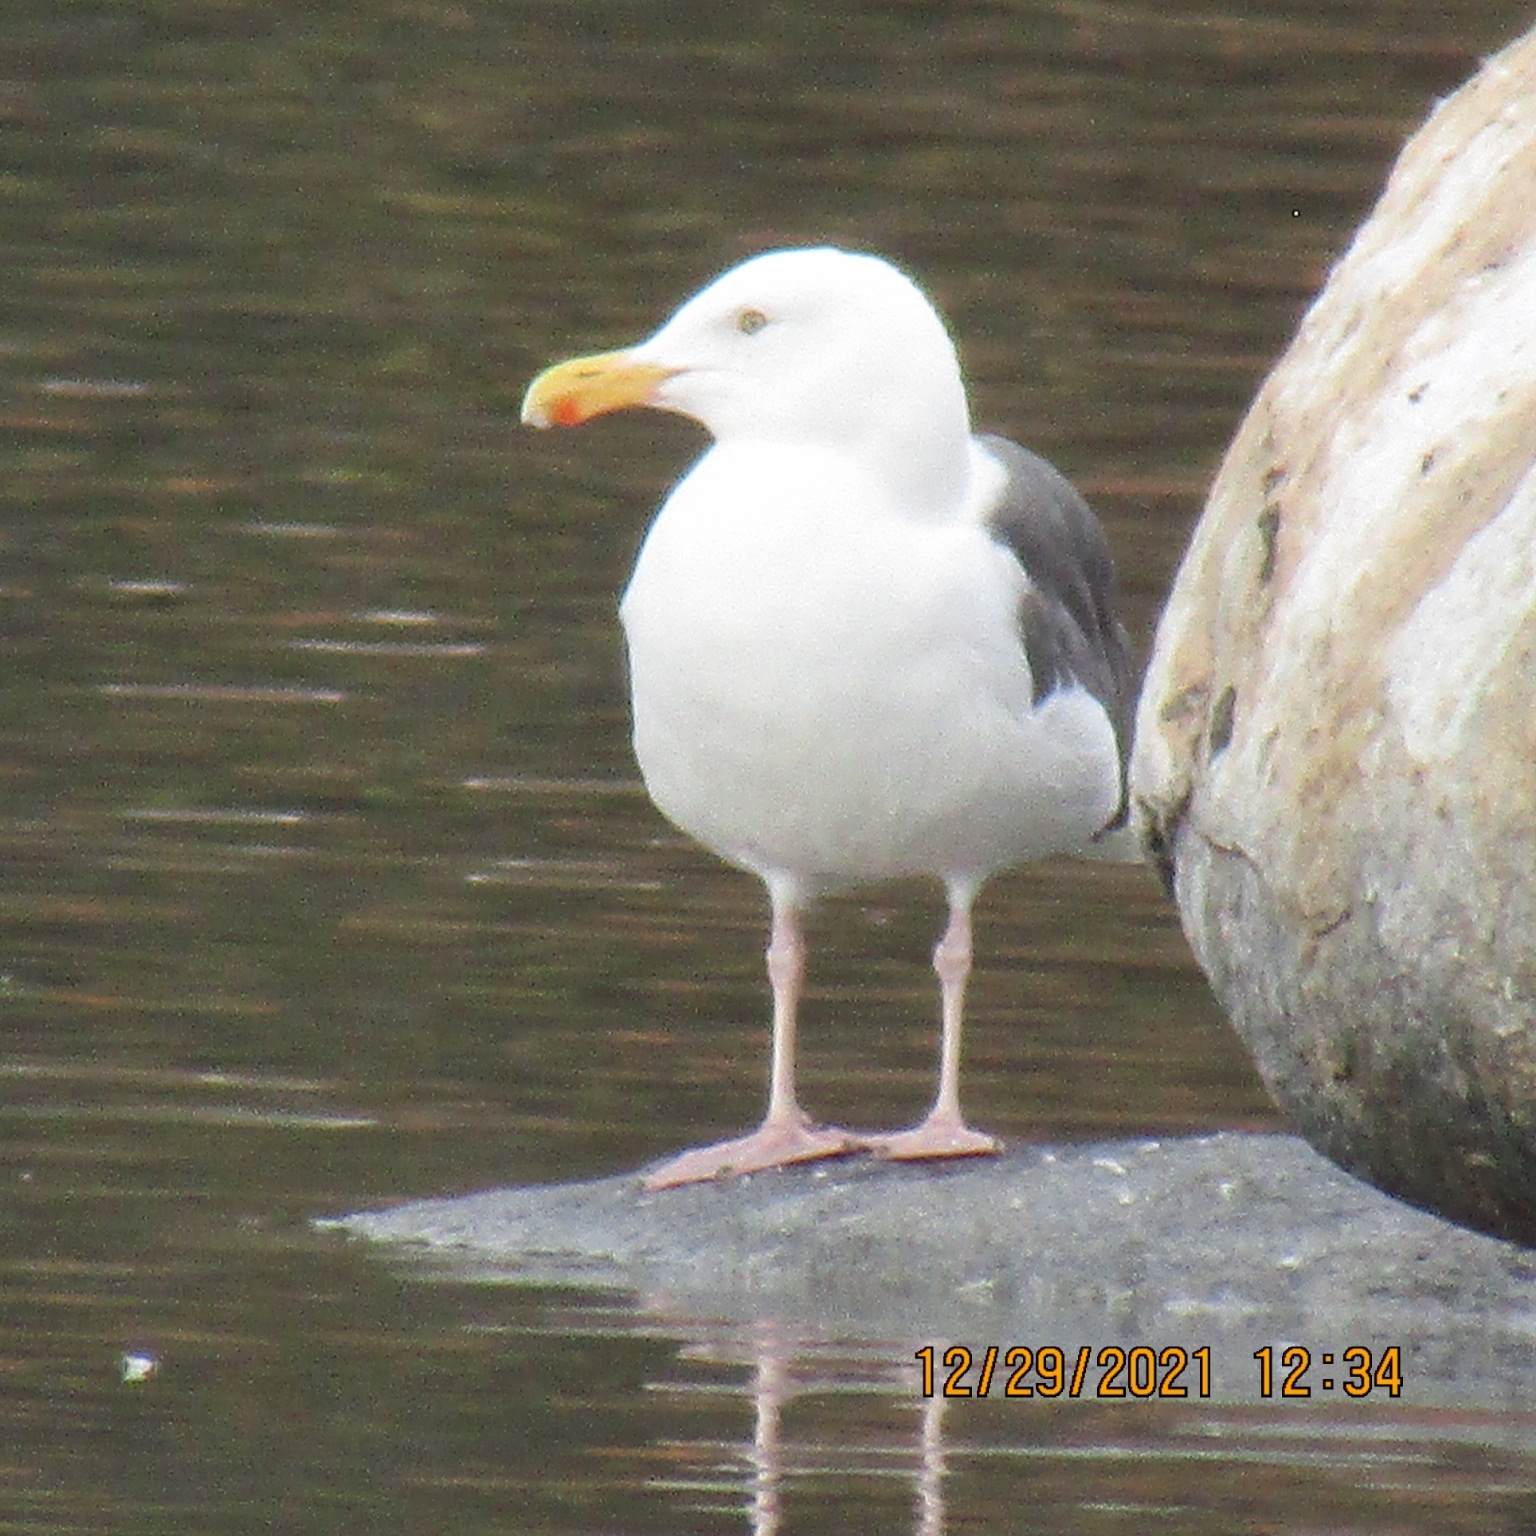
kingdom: Animalia
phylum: Chordata
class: Aves
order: Charadriiformes
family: Laridae
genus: Larus
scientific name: Larus occidentalis
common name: Western gull
